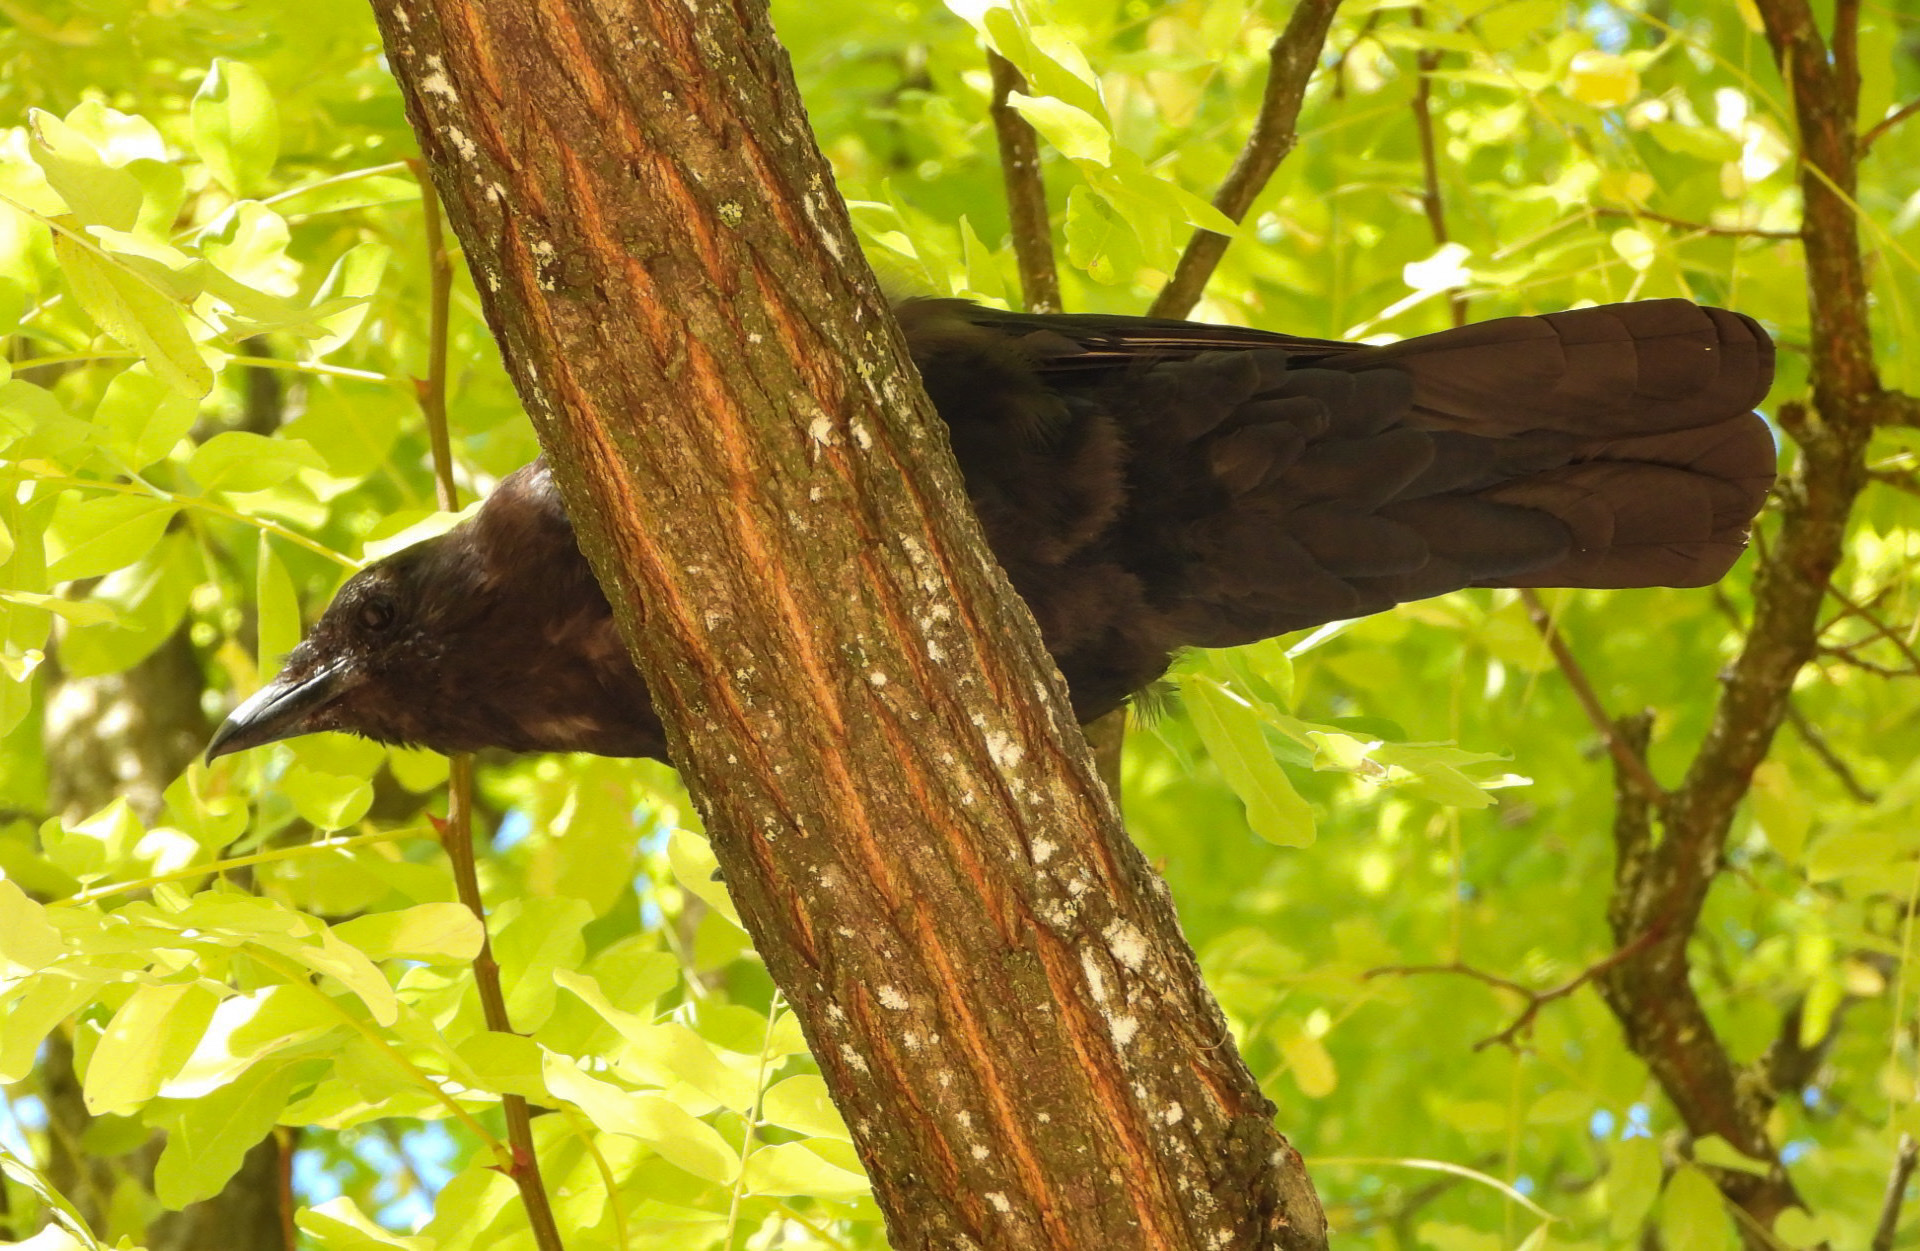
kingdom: Animalia
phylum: Chordata
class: Aves
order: Passeriformes
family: Corvidae
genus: Corvus
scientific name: Corvus brachyrhynchos
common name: American crow
